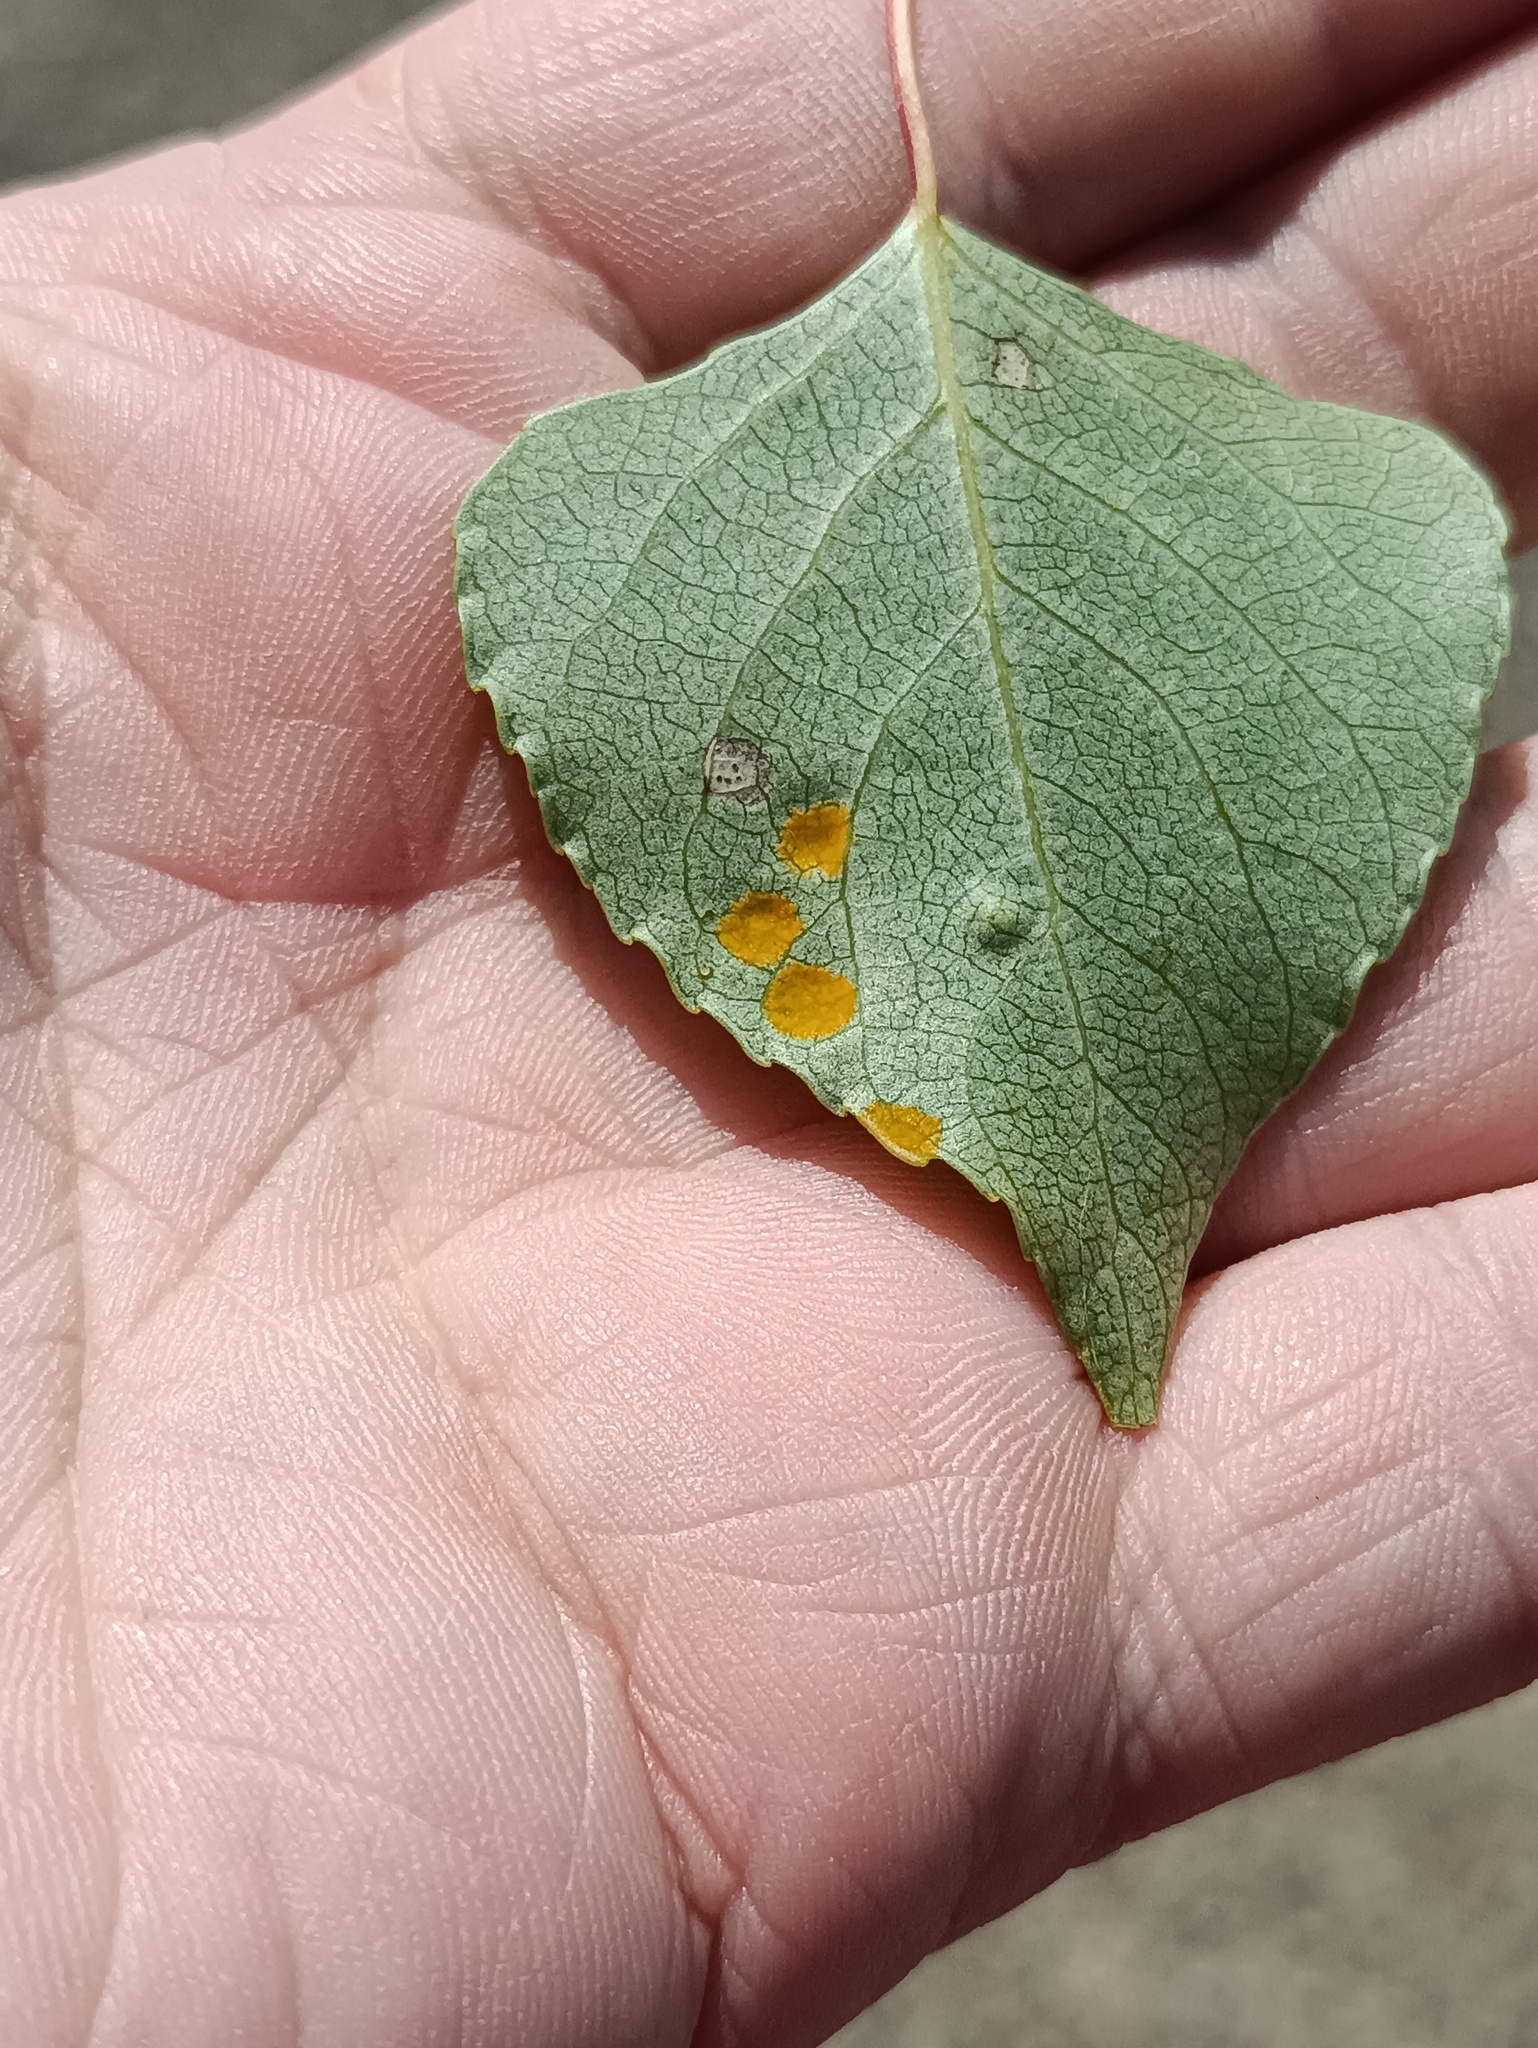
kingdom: Fungi
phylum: Ascomycota
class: Taphrinomycetes
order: Taphrinales
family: Taphrinaceae
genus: Taphrina
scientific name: Taphrina populina
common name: Poplar leaf curl
